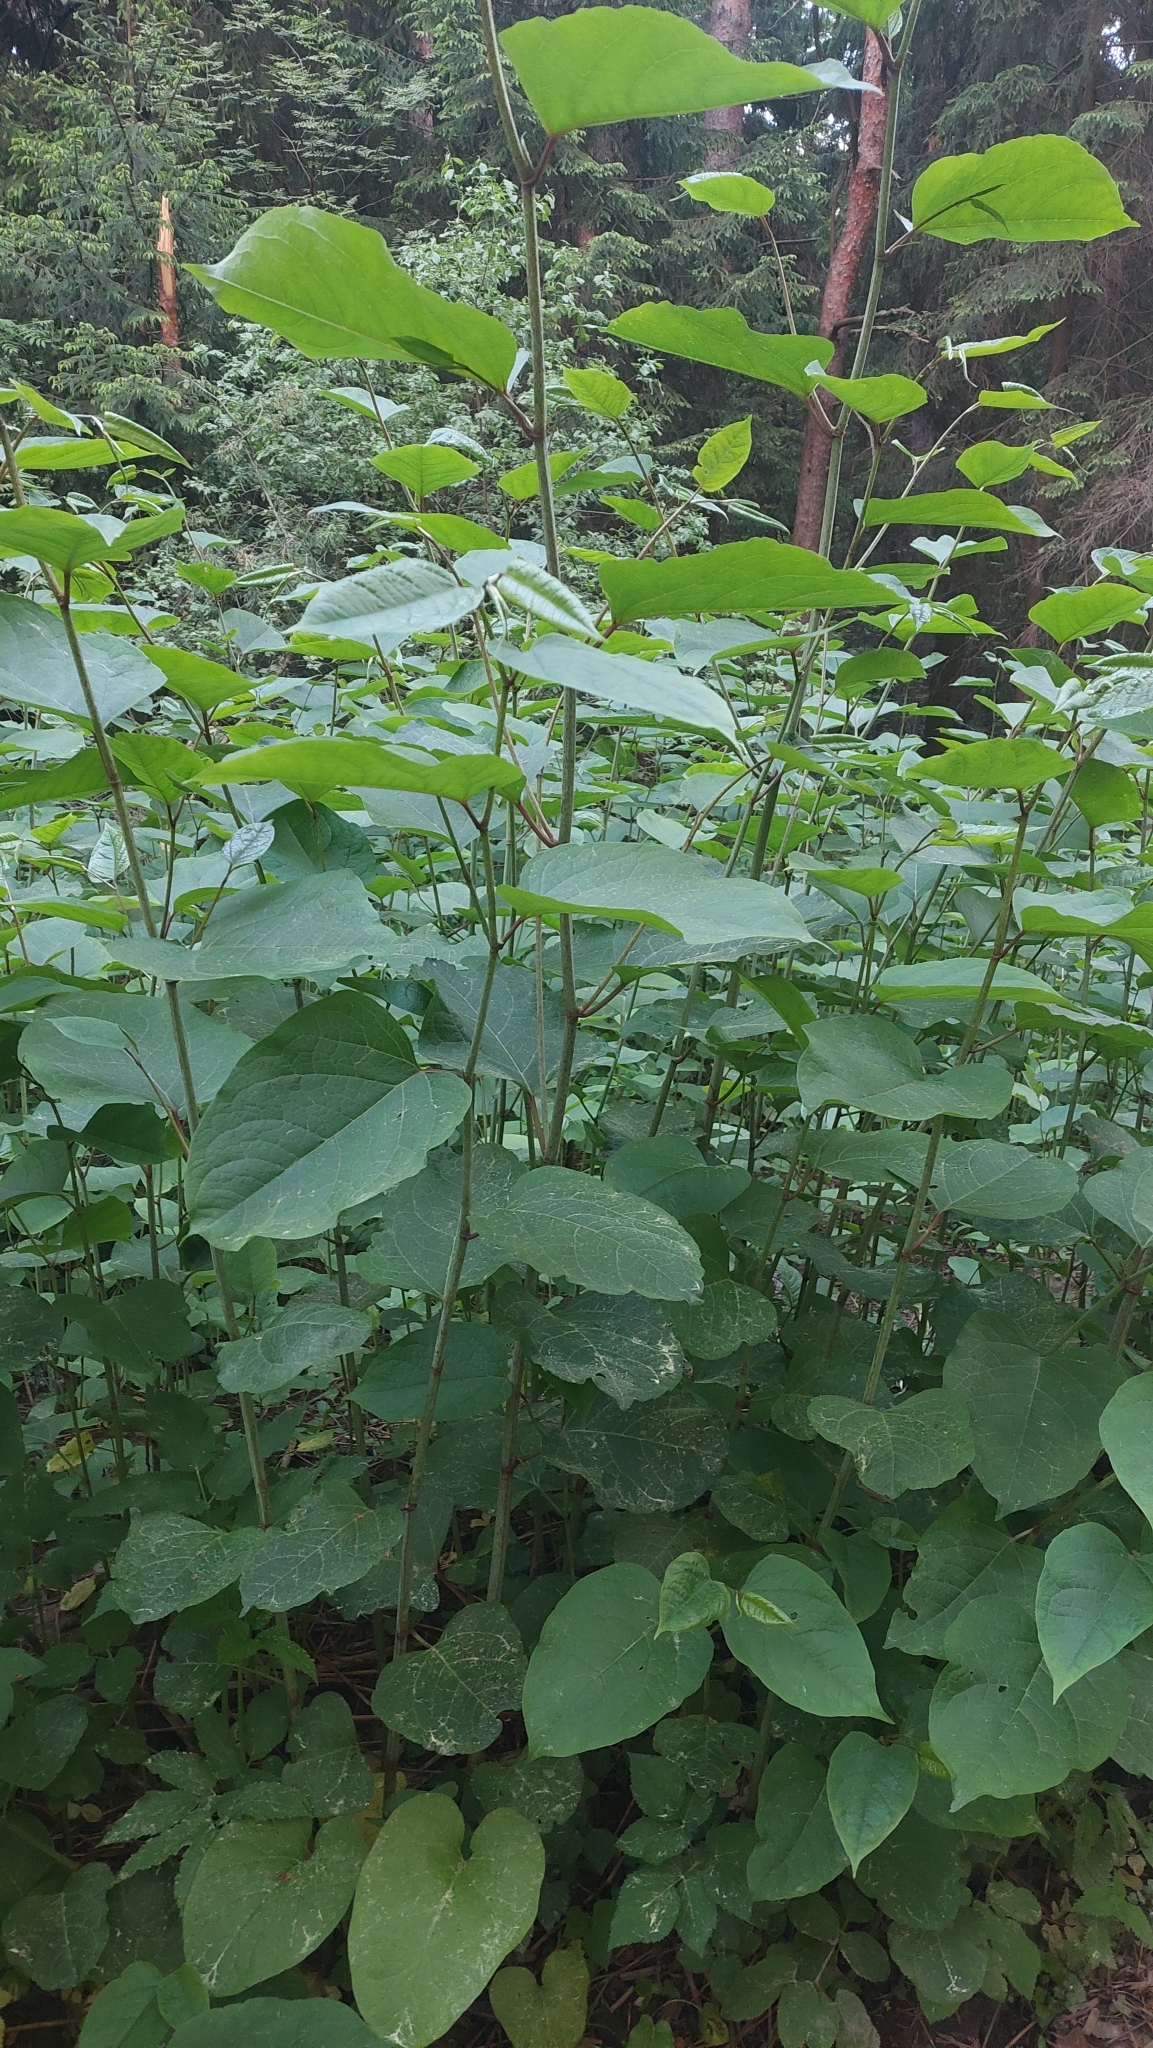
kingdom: Plantae
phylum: Tracheophyta
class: Magnoliopsida
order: Caryophyllales
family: Polygonaceae
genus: Reynoutria
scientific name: Reynoutria bohemica
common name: Bohemian knotweed
